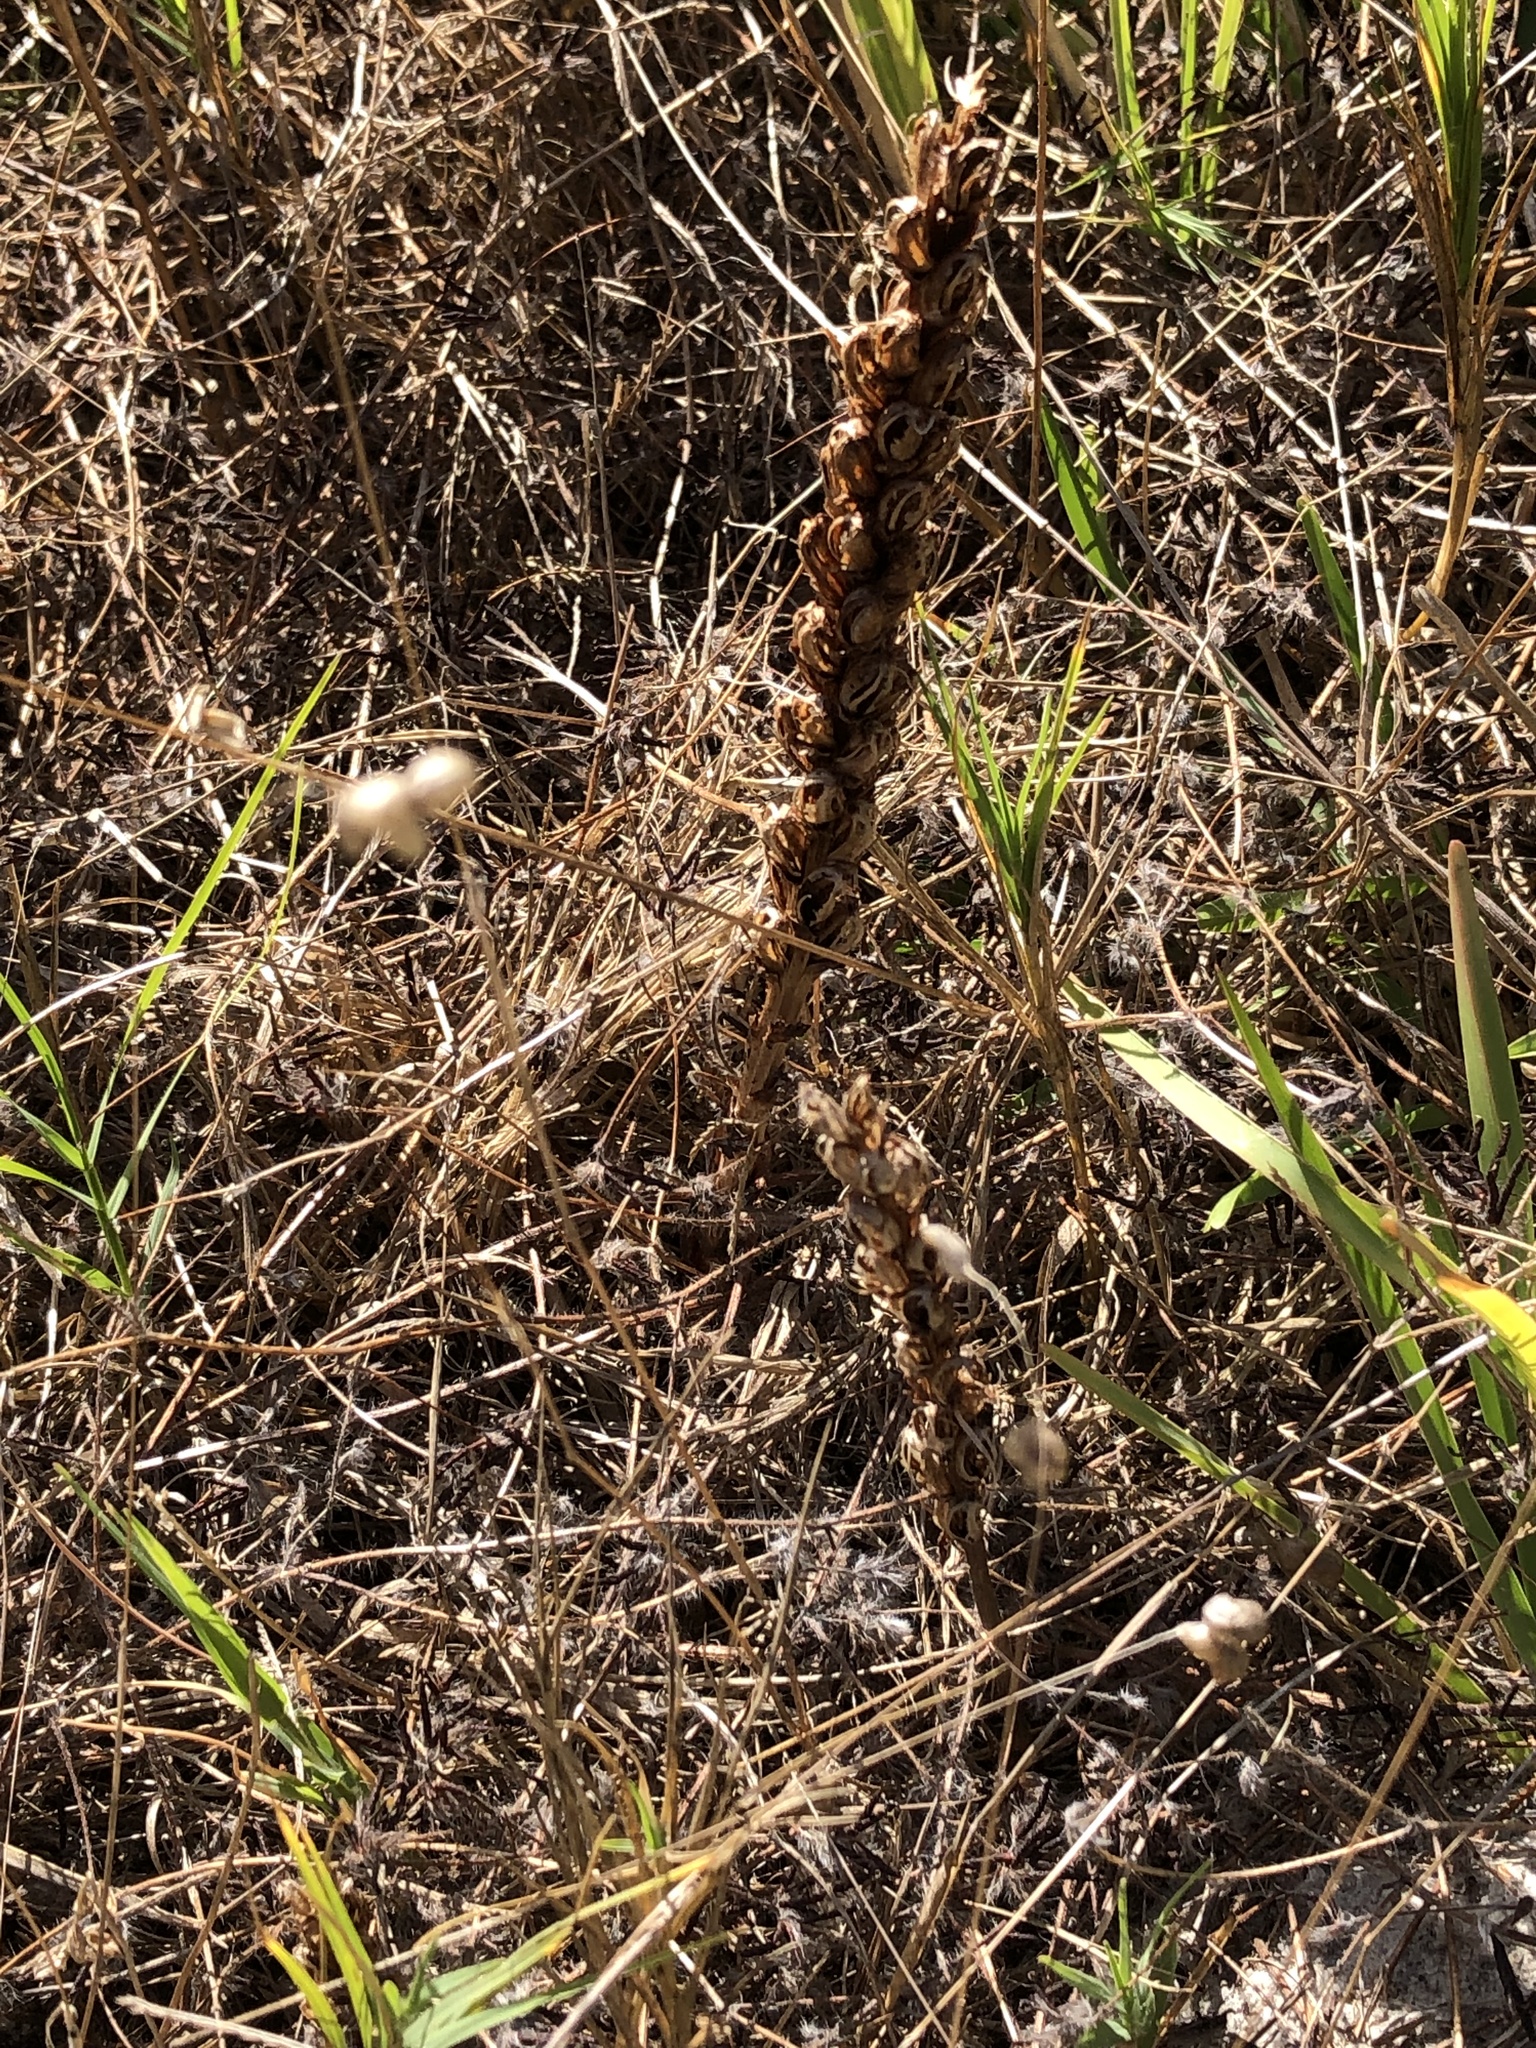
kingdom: Plantae
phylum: Tracheophyta
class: Liliopsida
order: Asparagales
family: Orchidaceae
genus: Disa
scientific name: Disa bracteata
